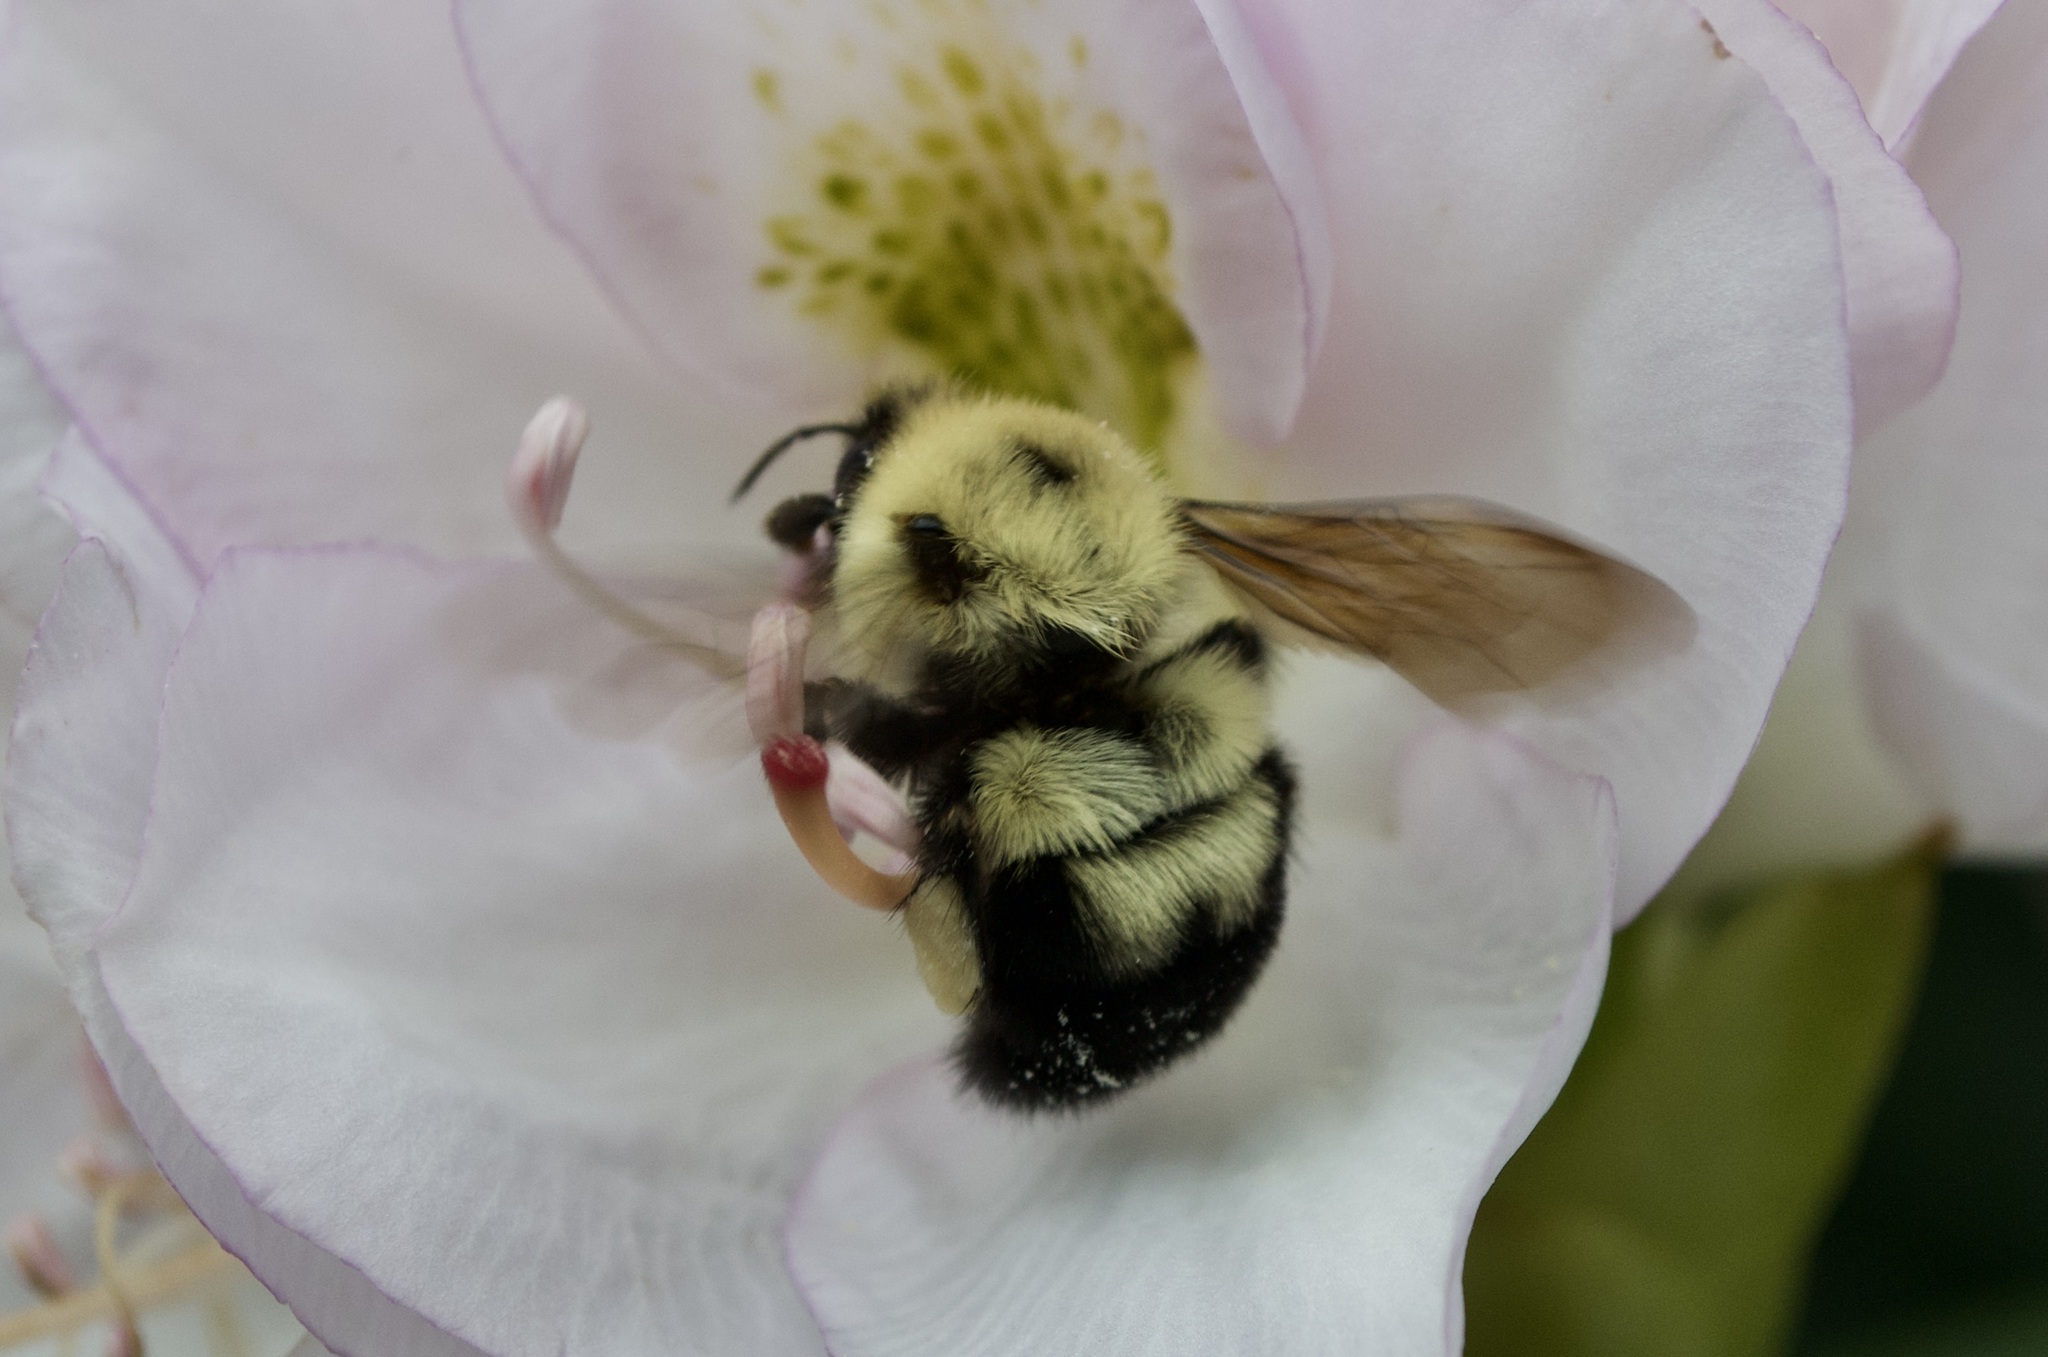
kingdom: Animalia
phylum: Arthropoda
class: Insecta
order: Hymenoptera
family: Apidae
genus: Bombus
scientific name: Bombus bimaculatus
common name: Two-spotted bumble bee
